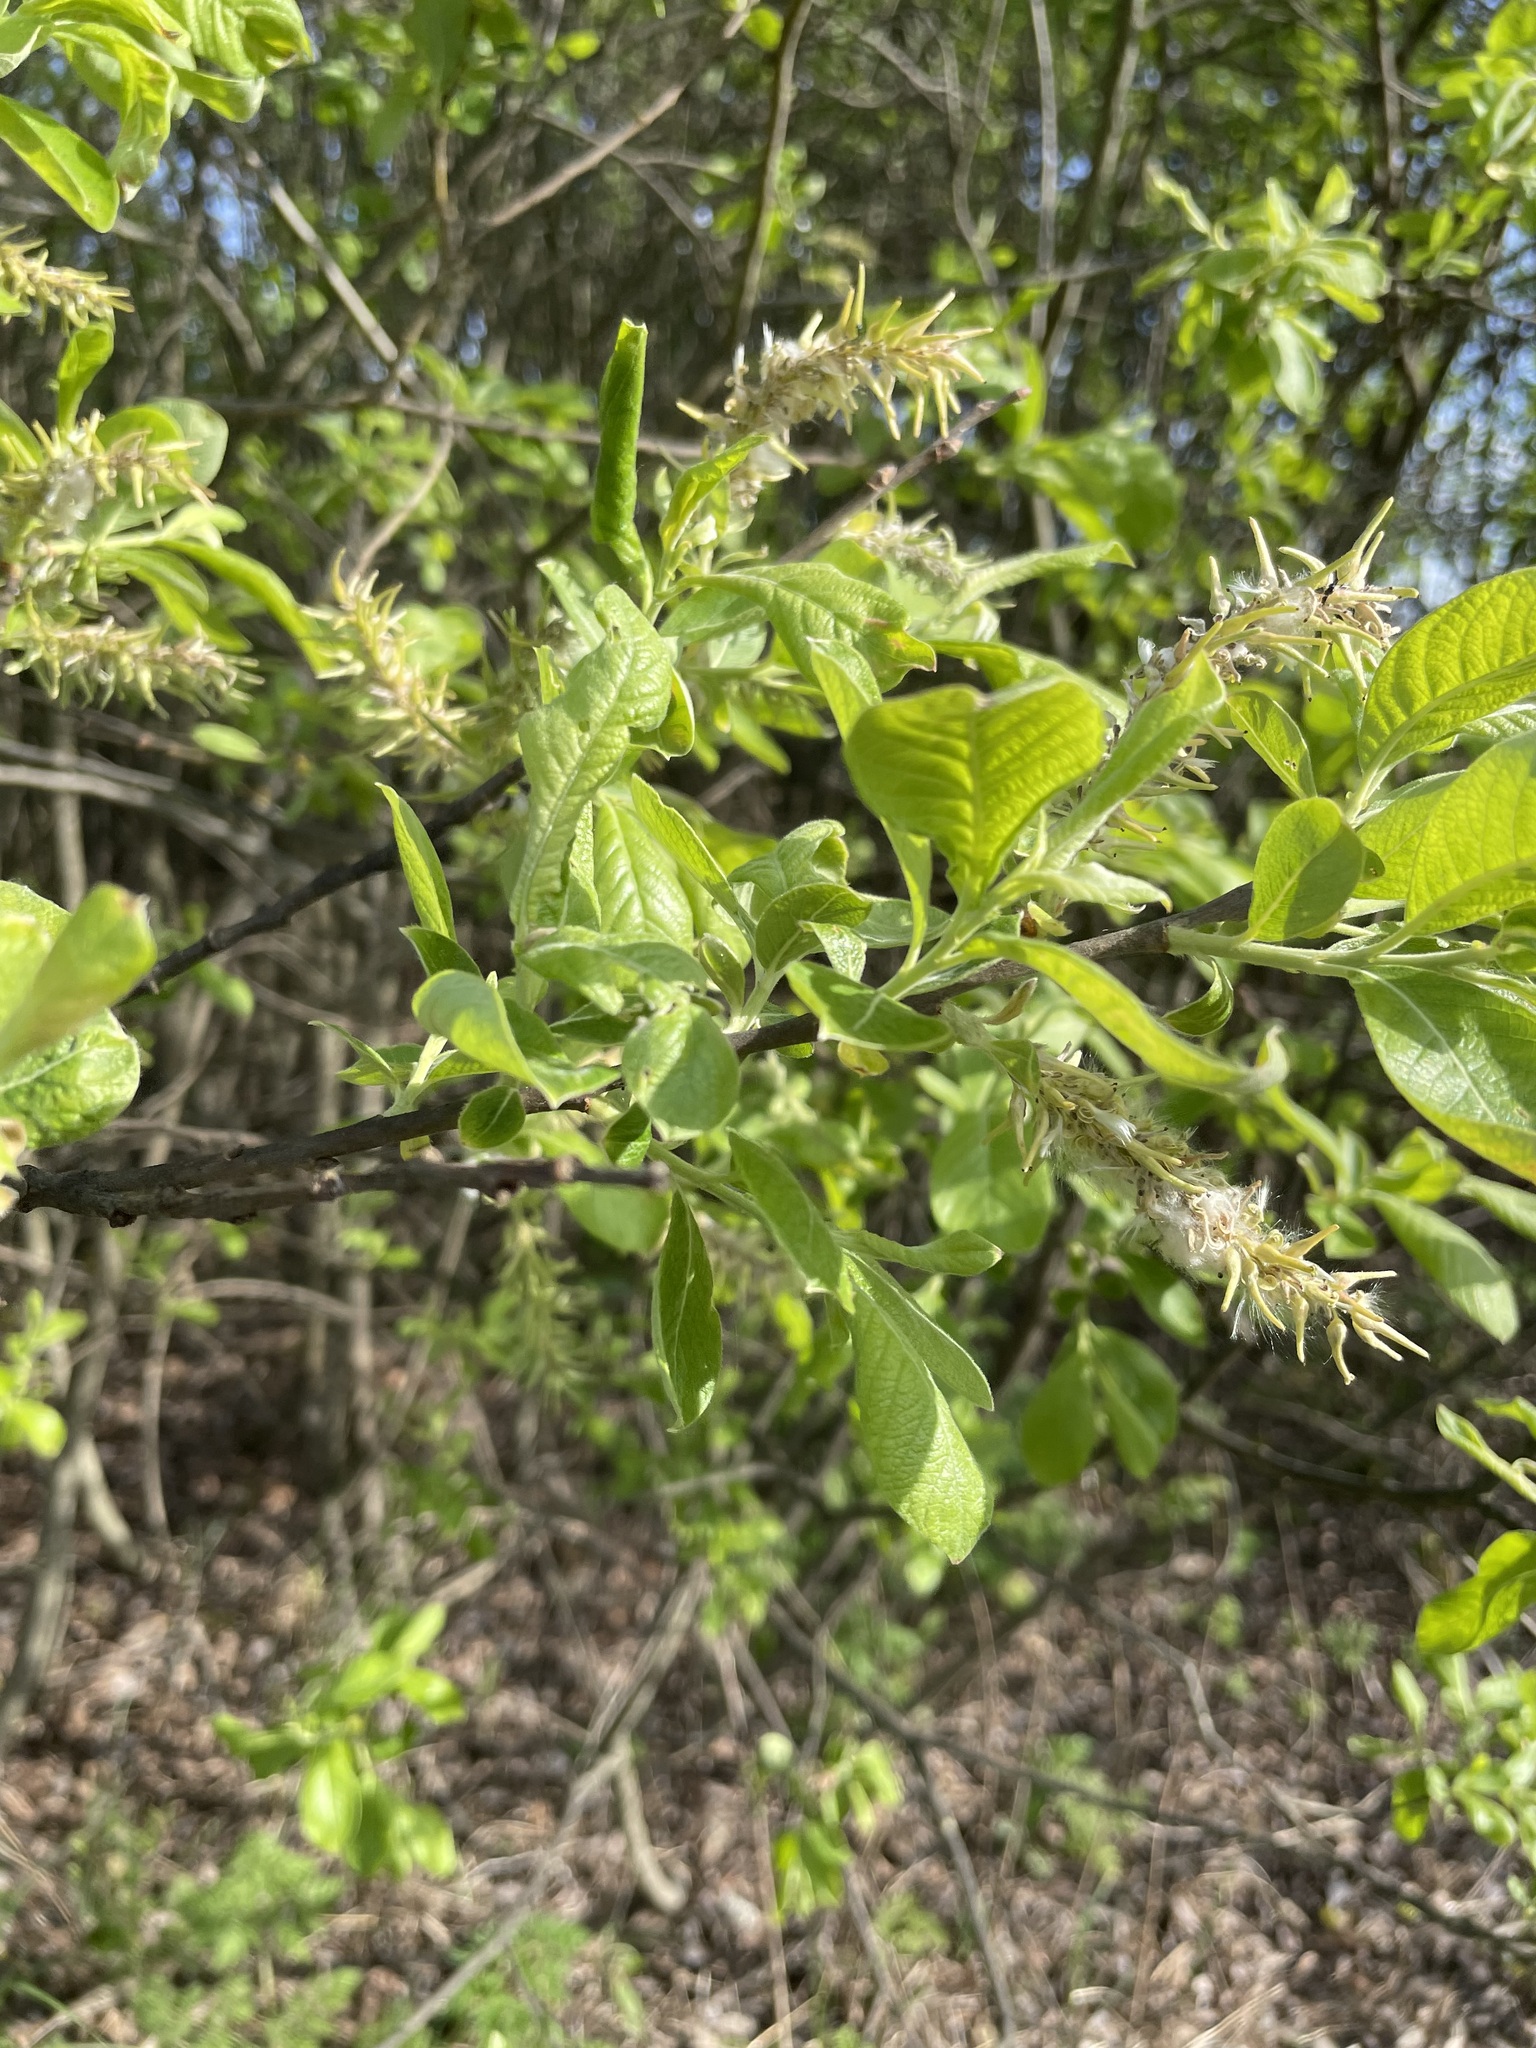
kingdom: Plantae
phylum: Tracheophyta
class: Magnoliopsida
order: Malpighiales
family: Salicaceae
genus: Salix
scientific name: Salix cinerea
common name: Common sallow
